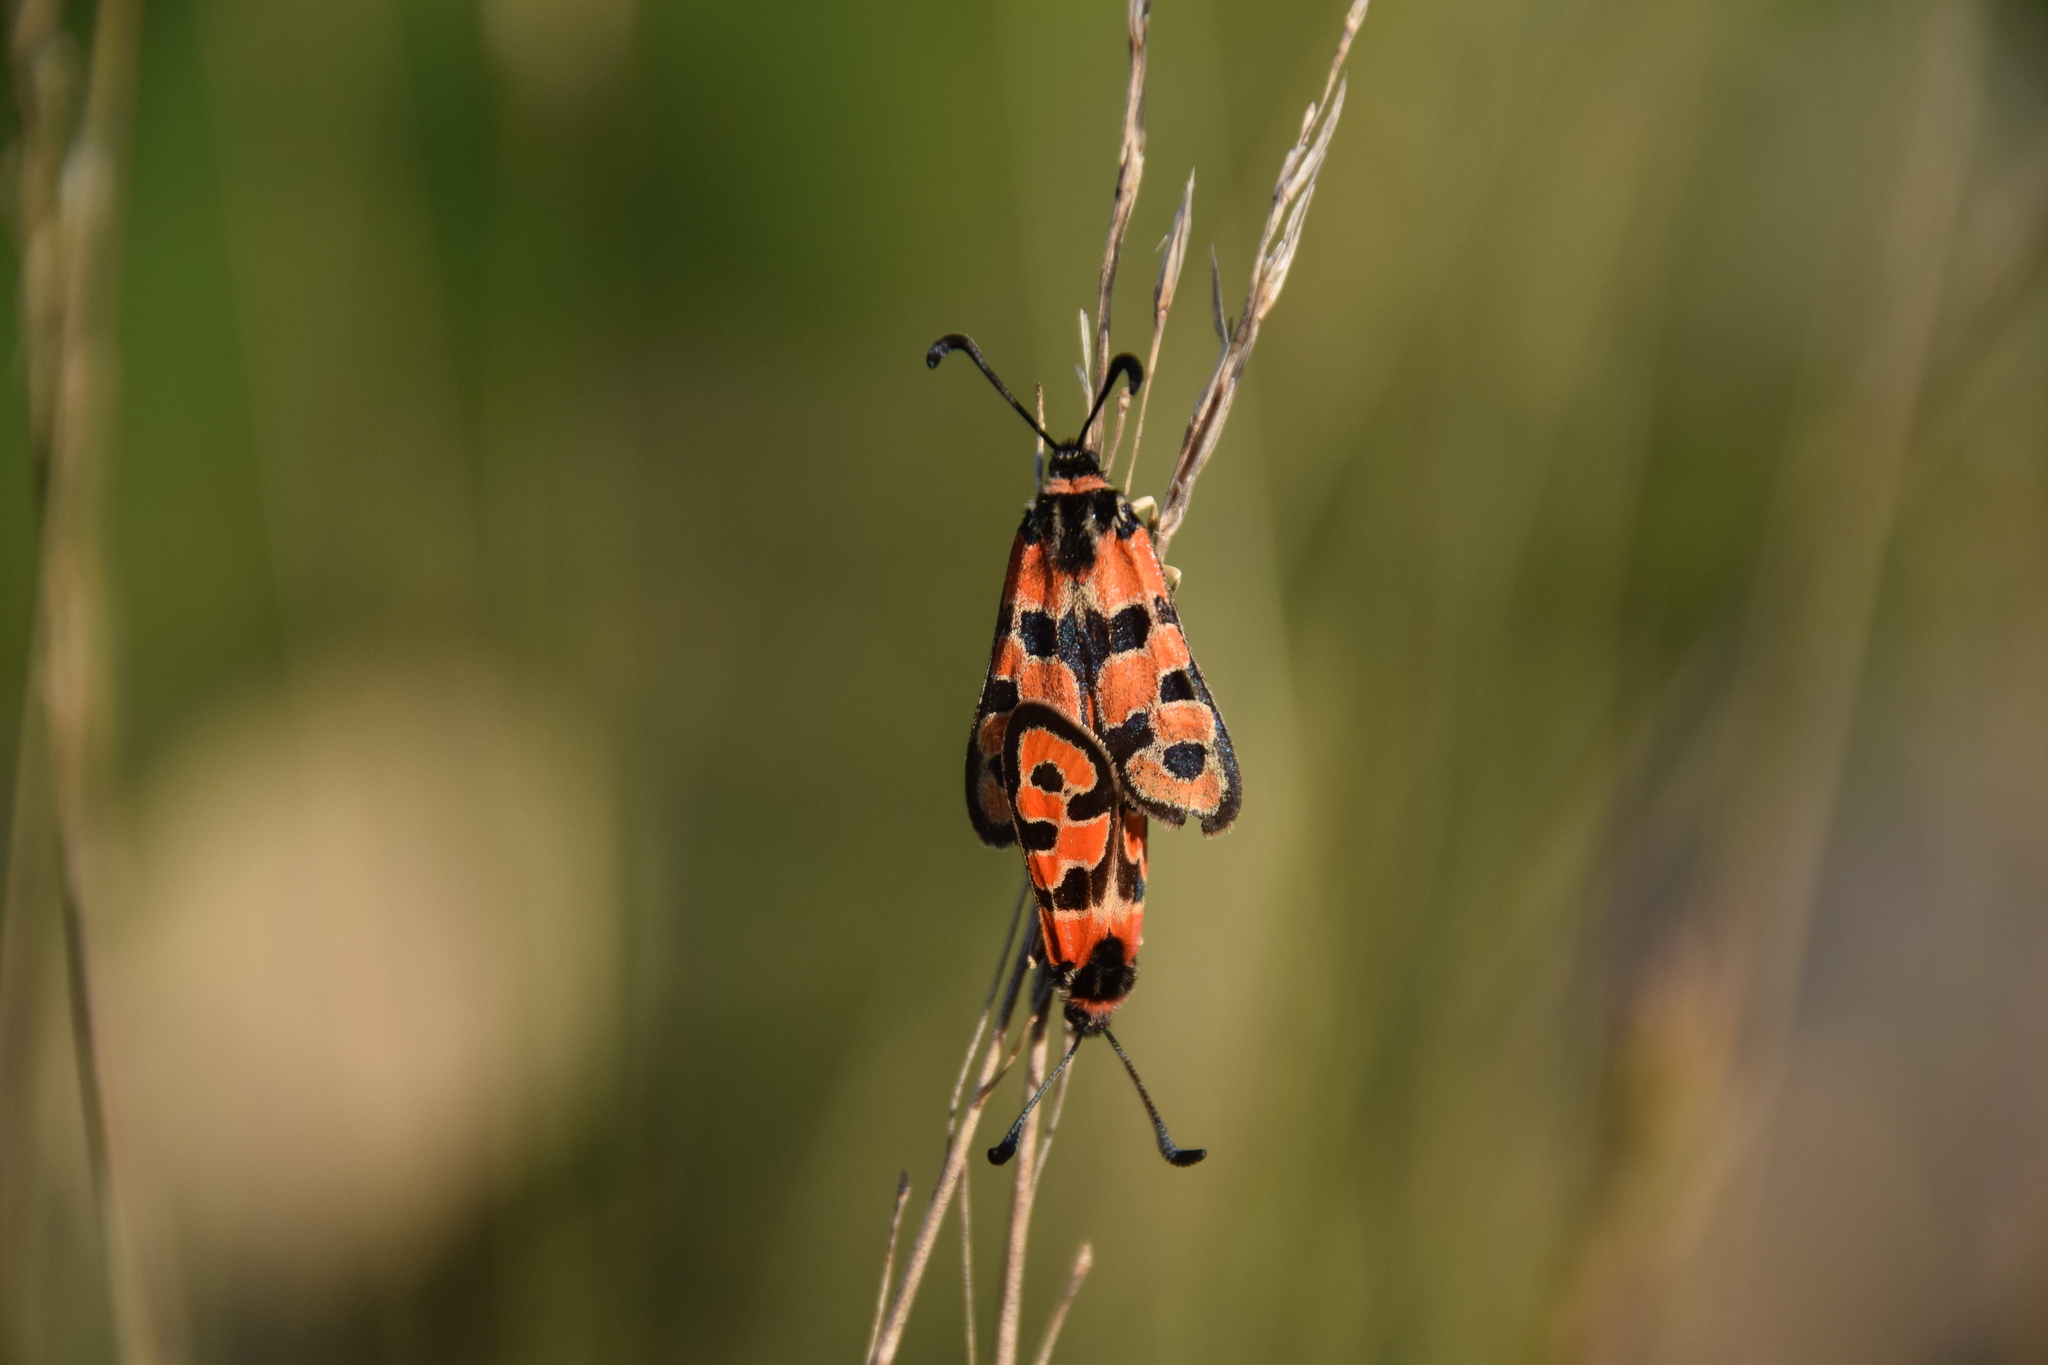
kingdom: Animalia
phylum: Arthropoda
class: Insecta
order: Lepidoptera
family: Zygaenidae
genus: Zygaena
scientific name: Zygaena fausta
